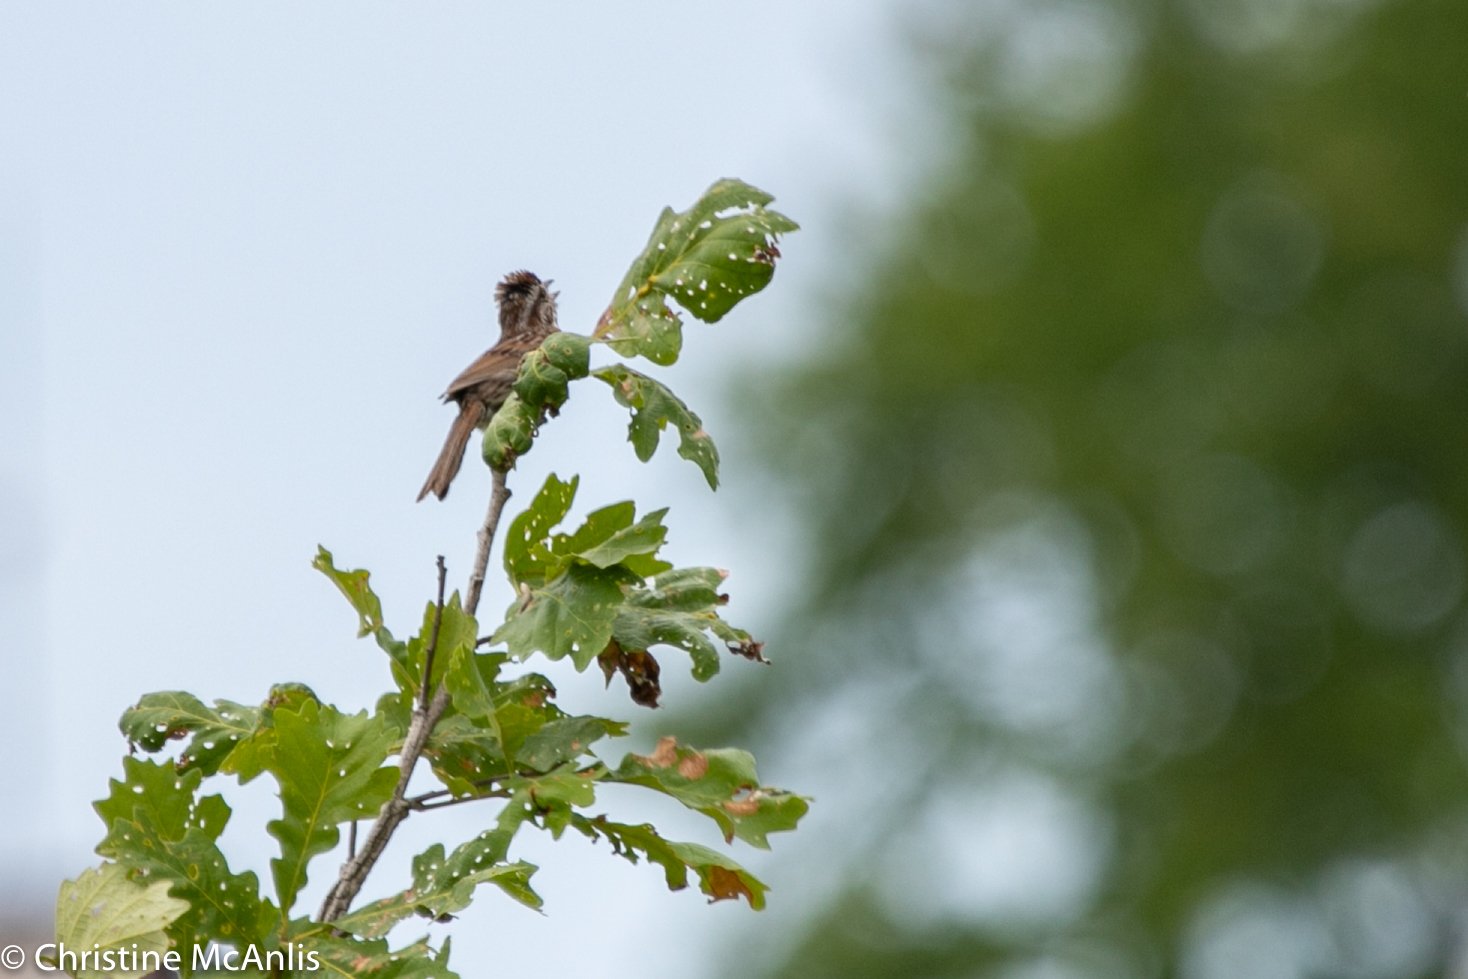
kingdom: Animalia
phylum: Chordata
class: Aves
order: Passeriformes
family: Passerellidae
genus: Melospiza
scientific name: Melospiza melodia
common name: Song sparrow
